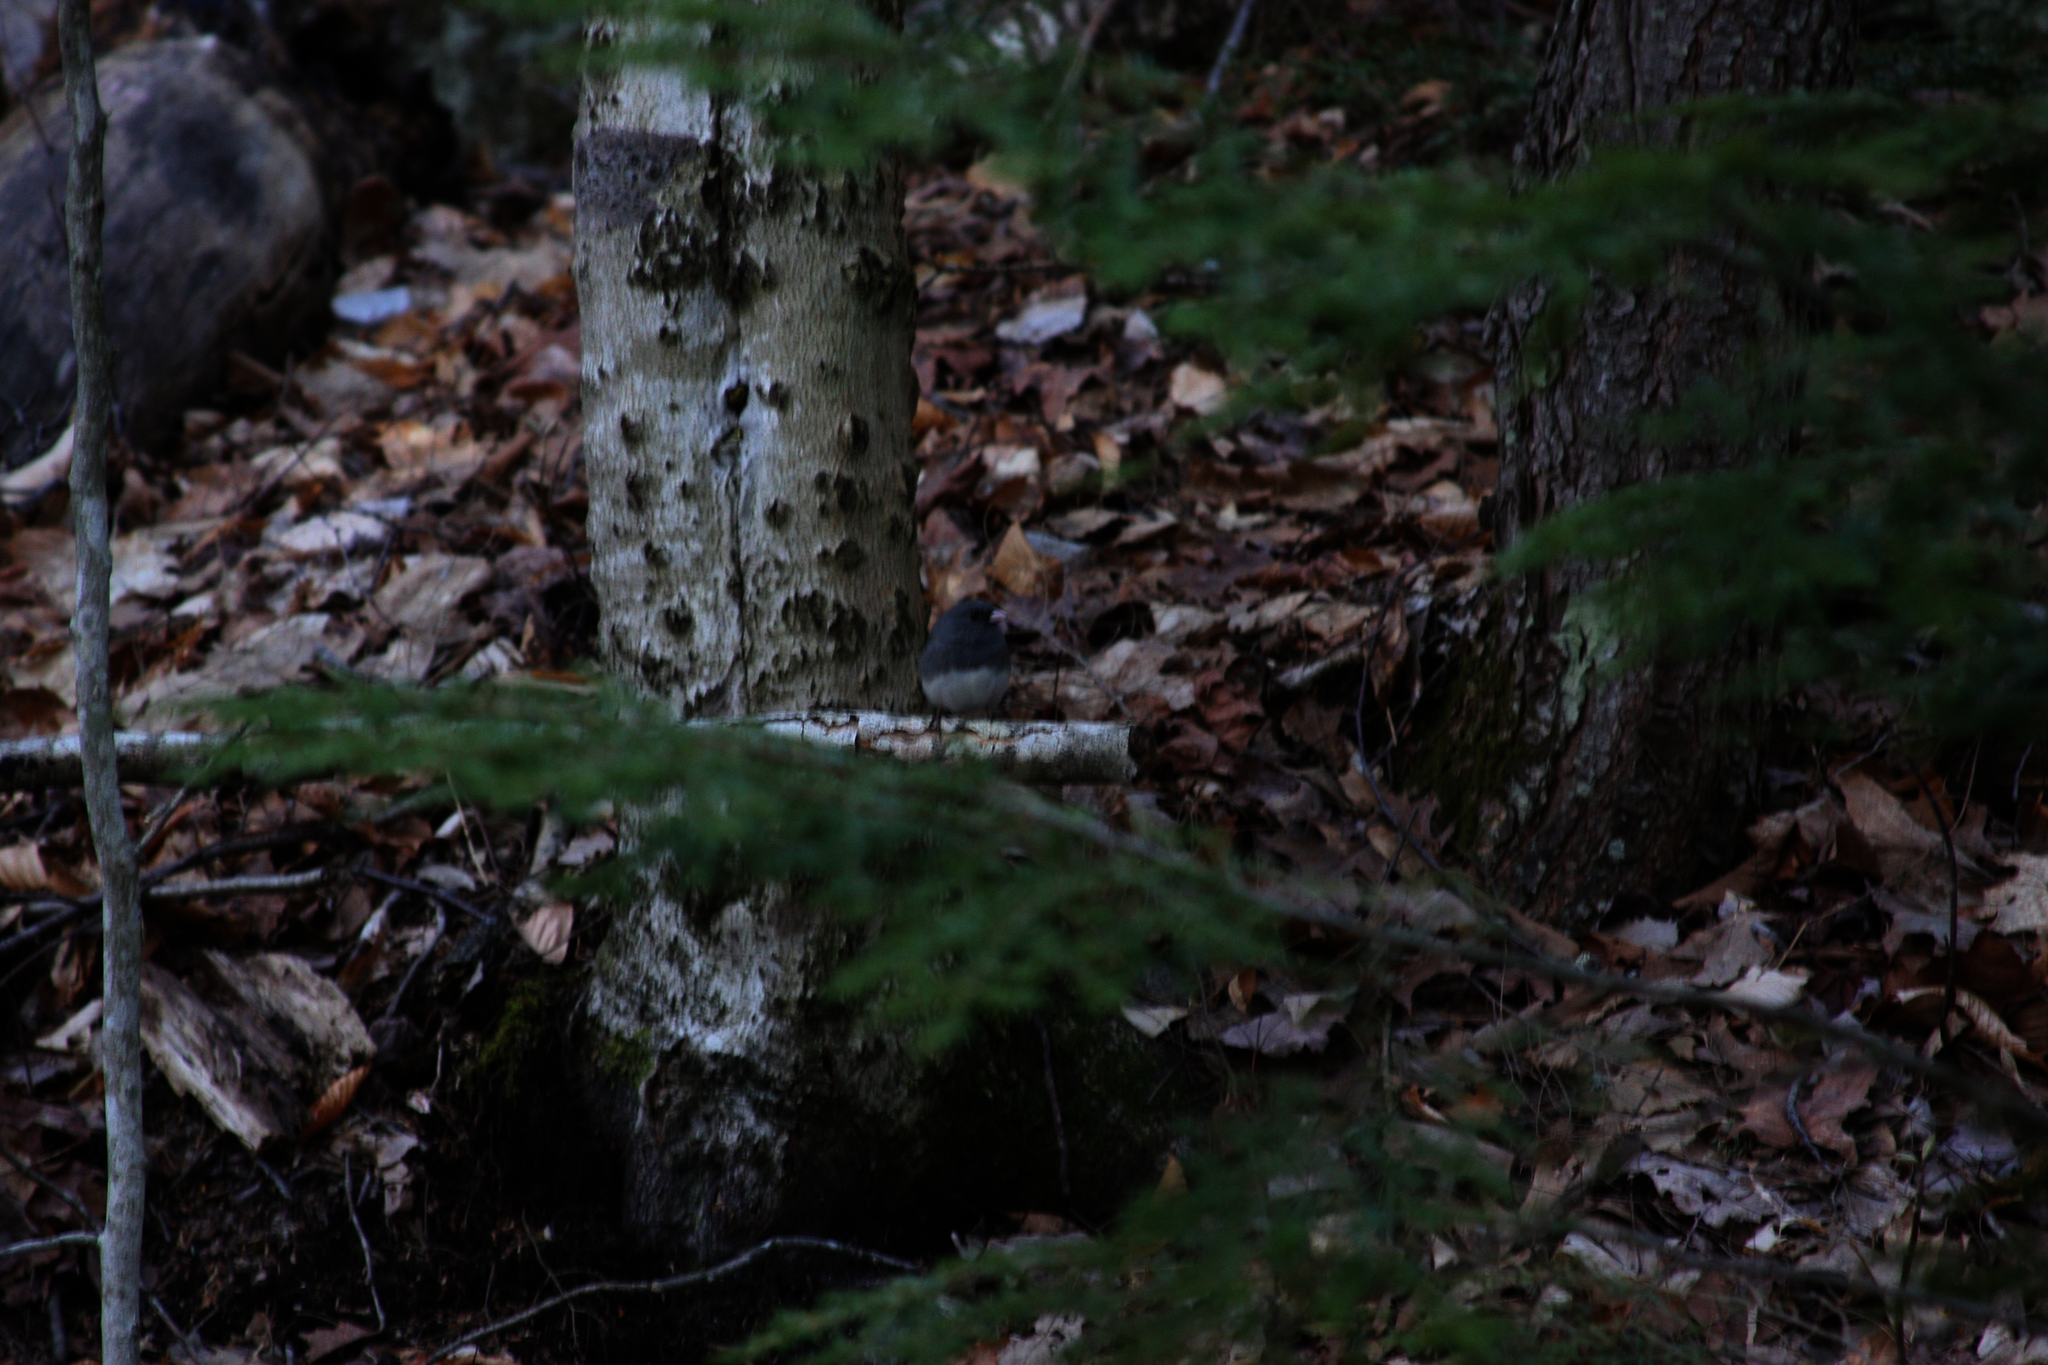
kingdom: Animalia
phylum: Chordata
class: Aves
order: Passeriformes
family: Passerellidae
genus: Junco
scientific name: Junco hyemalis
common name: Dark-eyed junco
